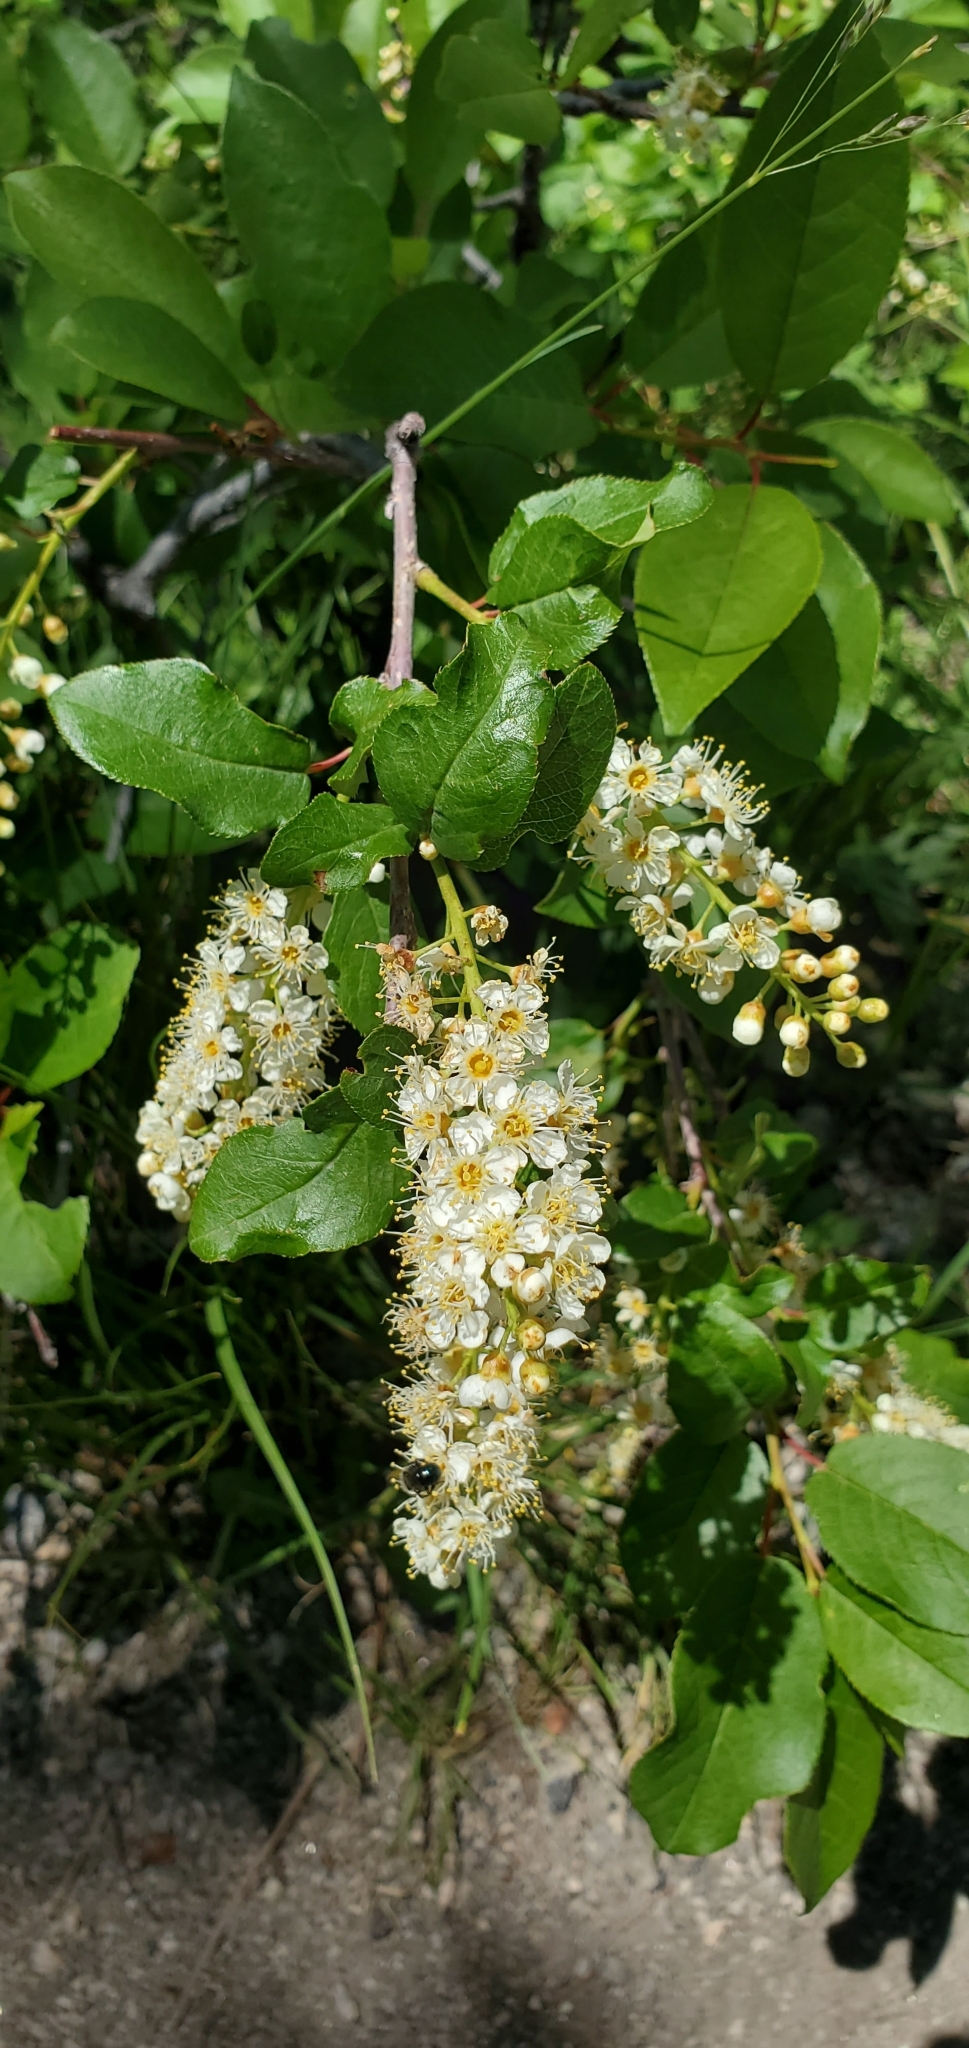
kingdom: Plantae
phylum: Tracheophyta
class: Magnoliopsida
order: Rosales
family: Rosaceae
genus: Prunus
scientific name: Prunus virginiana
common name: Chokecherry
